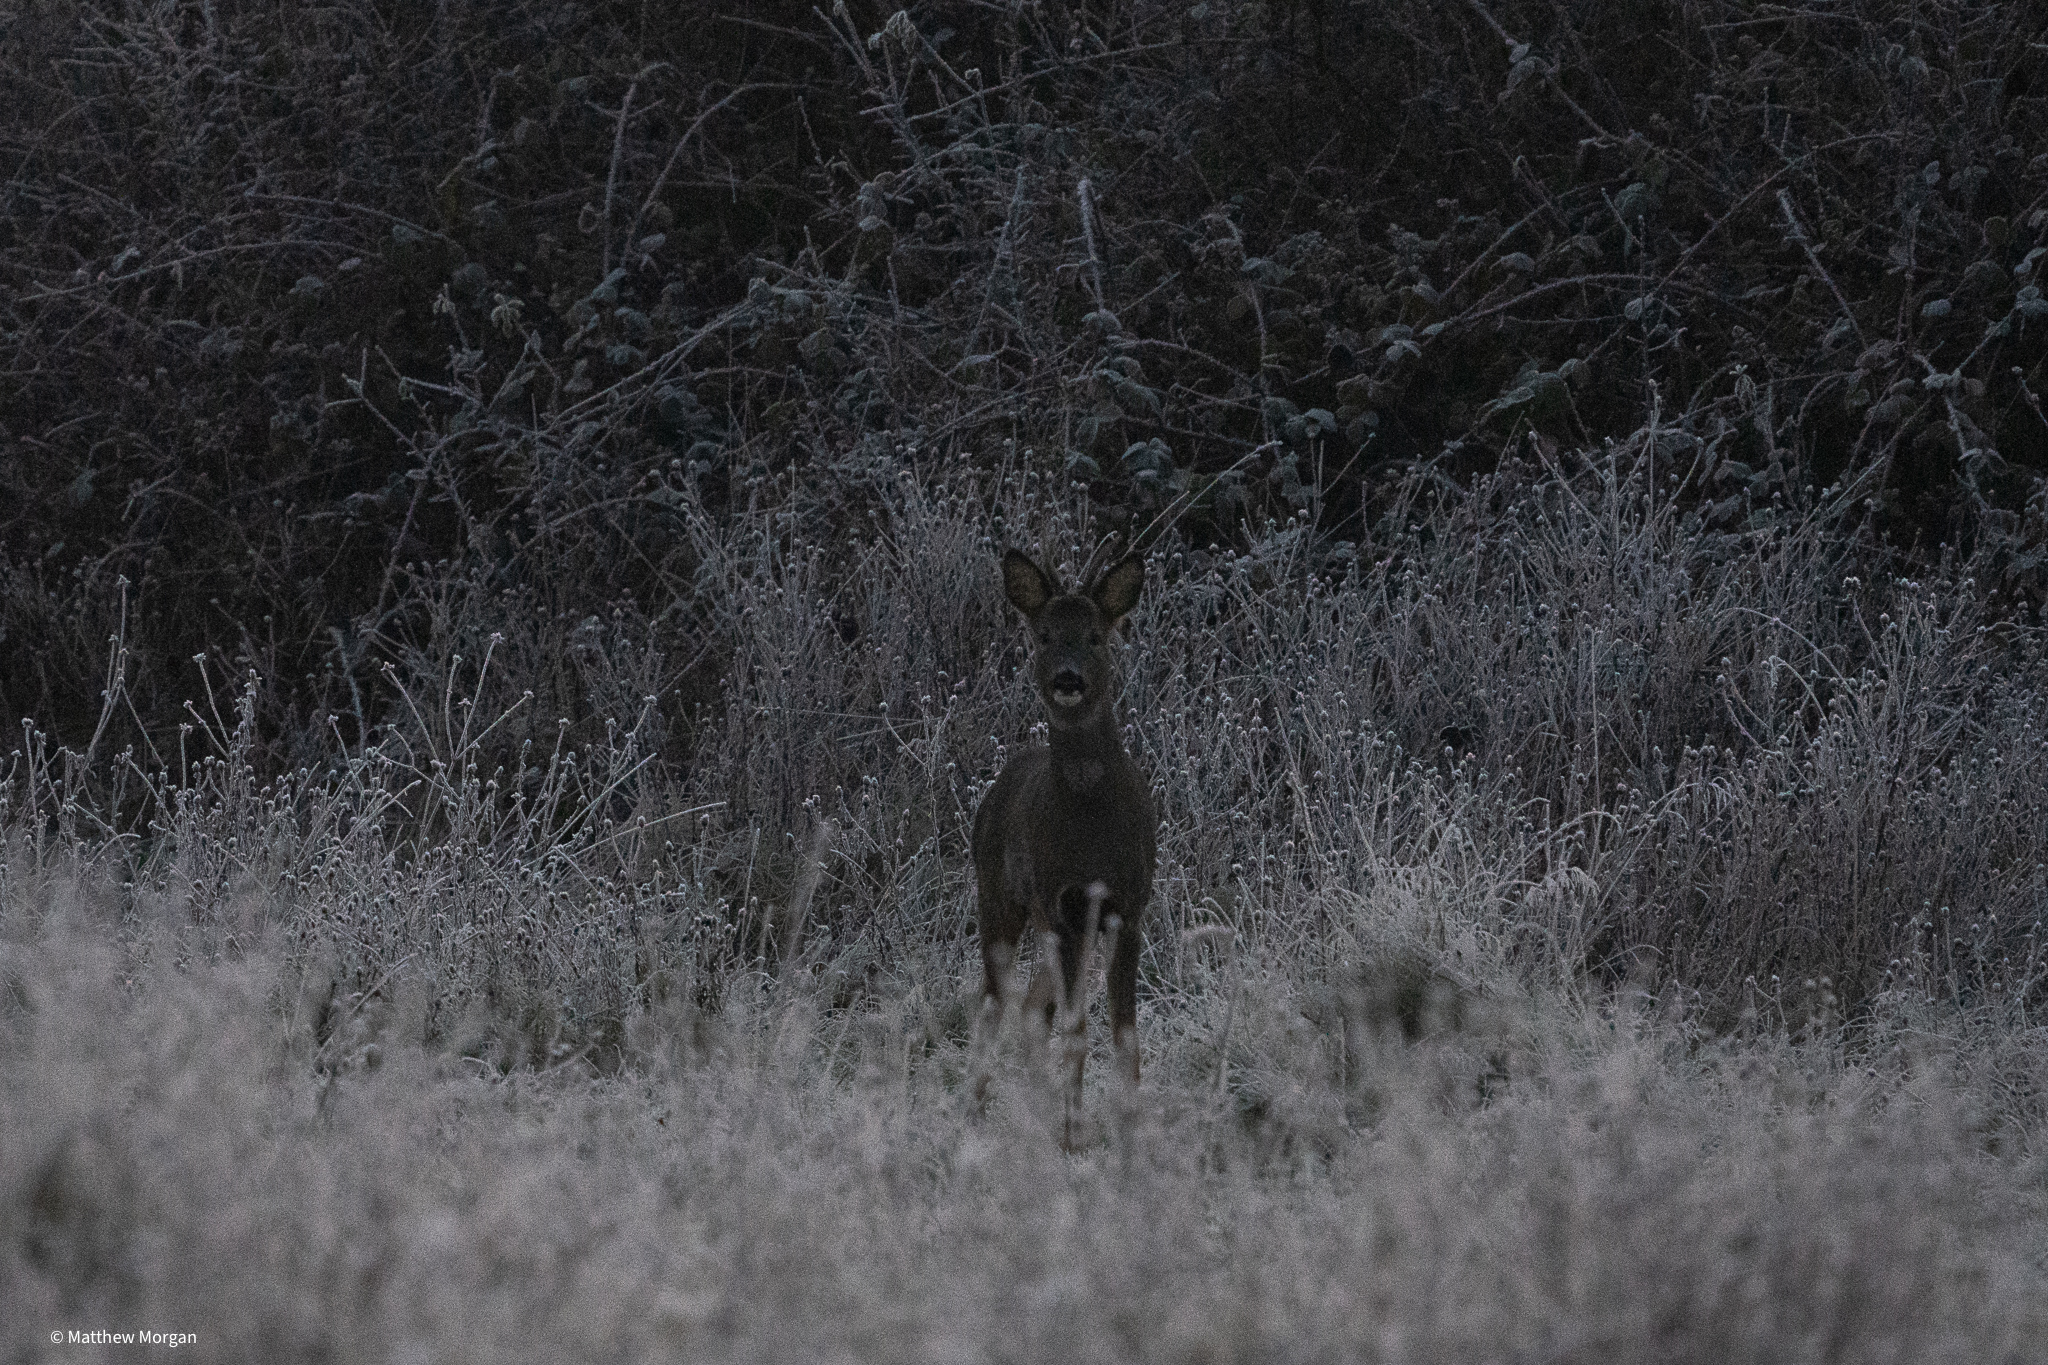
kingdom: Animalia
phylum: Chordata
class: Mammalia
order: Artiodactyla
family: Cervidae
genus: Capreolus
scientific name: Capreolus capreolus
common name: Western roe deer
